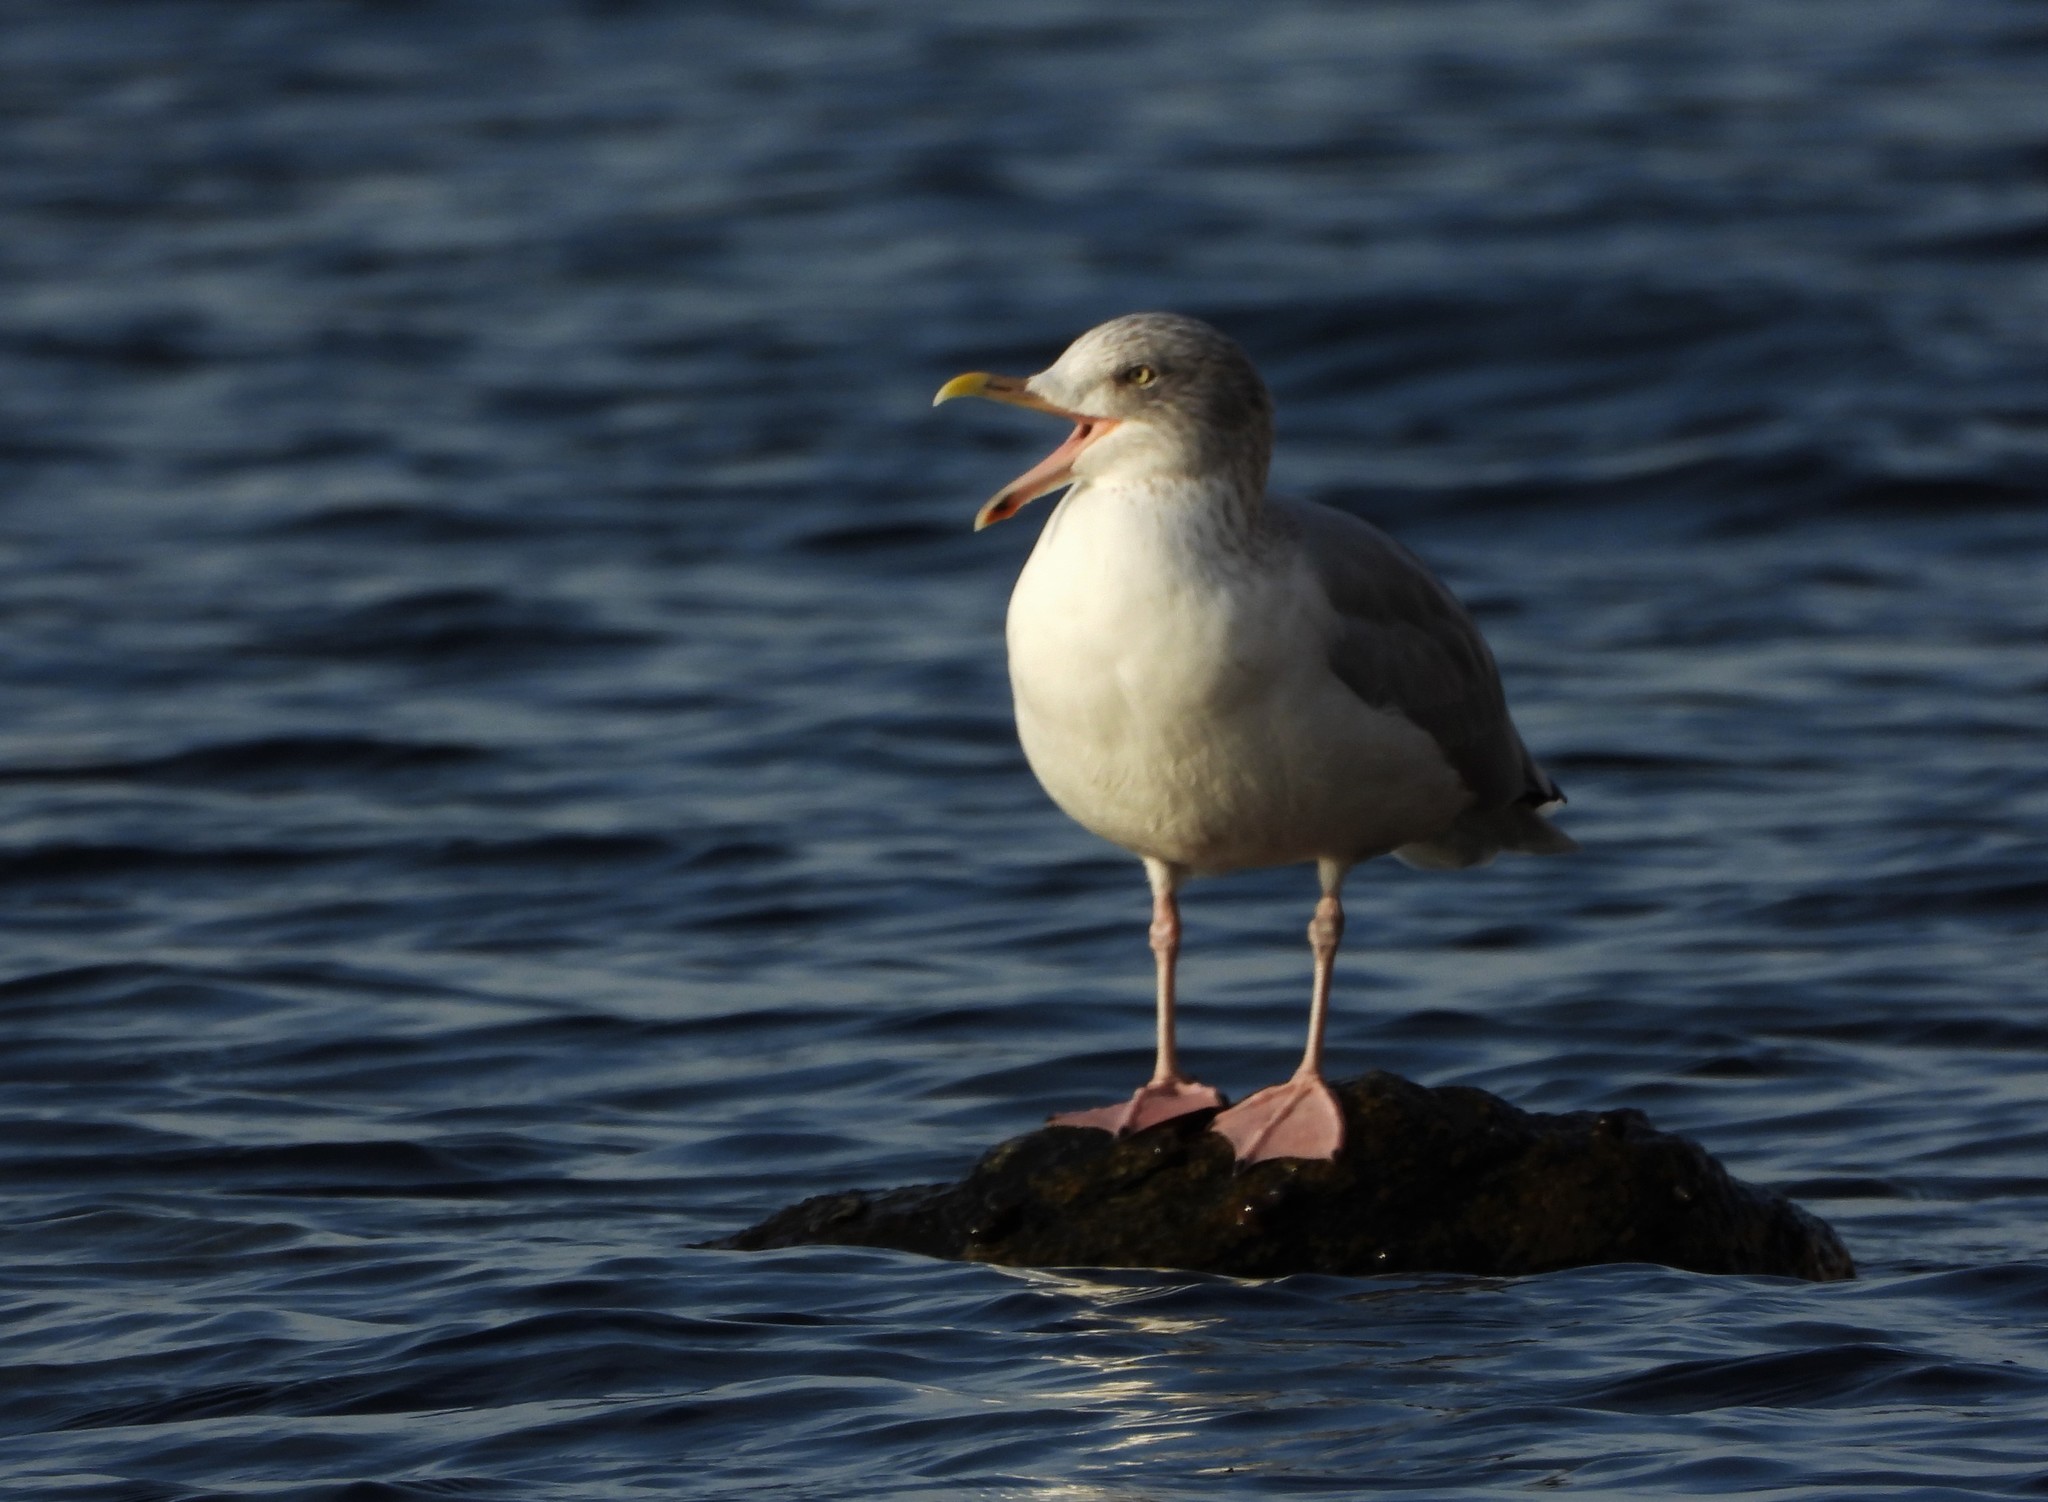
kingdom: Animalia
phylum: Chordata
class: Aves
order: Charadriiformes
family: Laridae
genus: Larus
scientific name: Larus argentatus
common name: Herring gull
